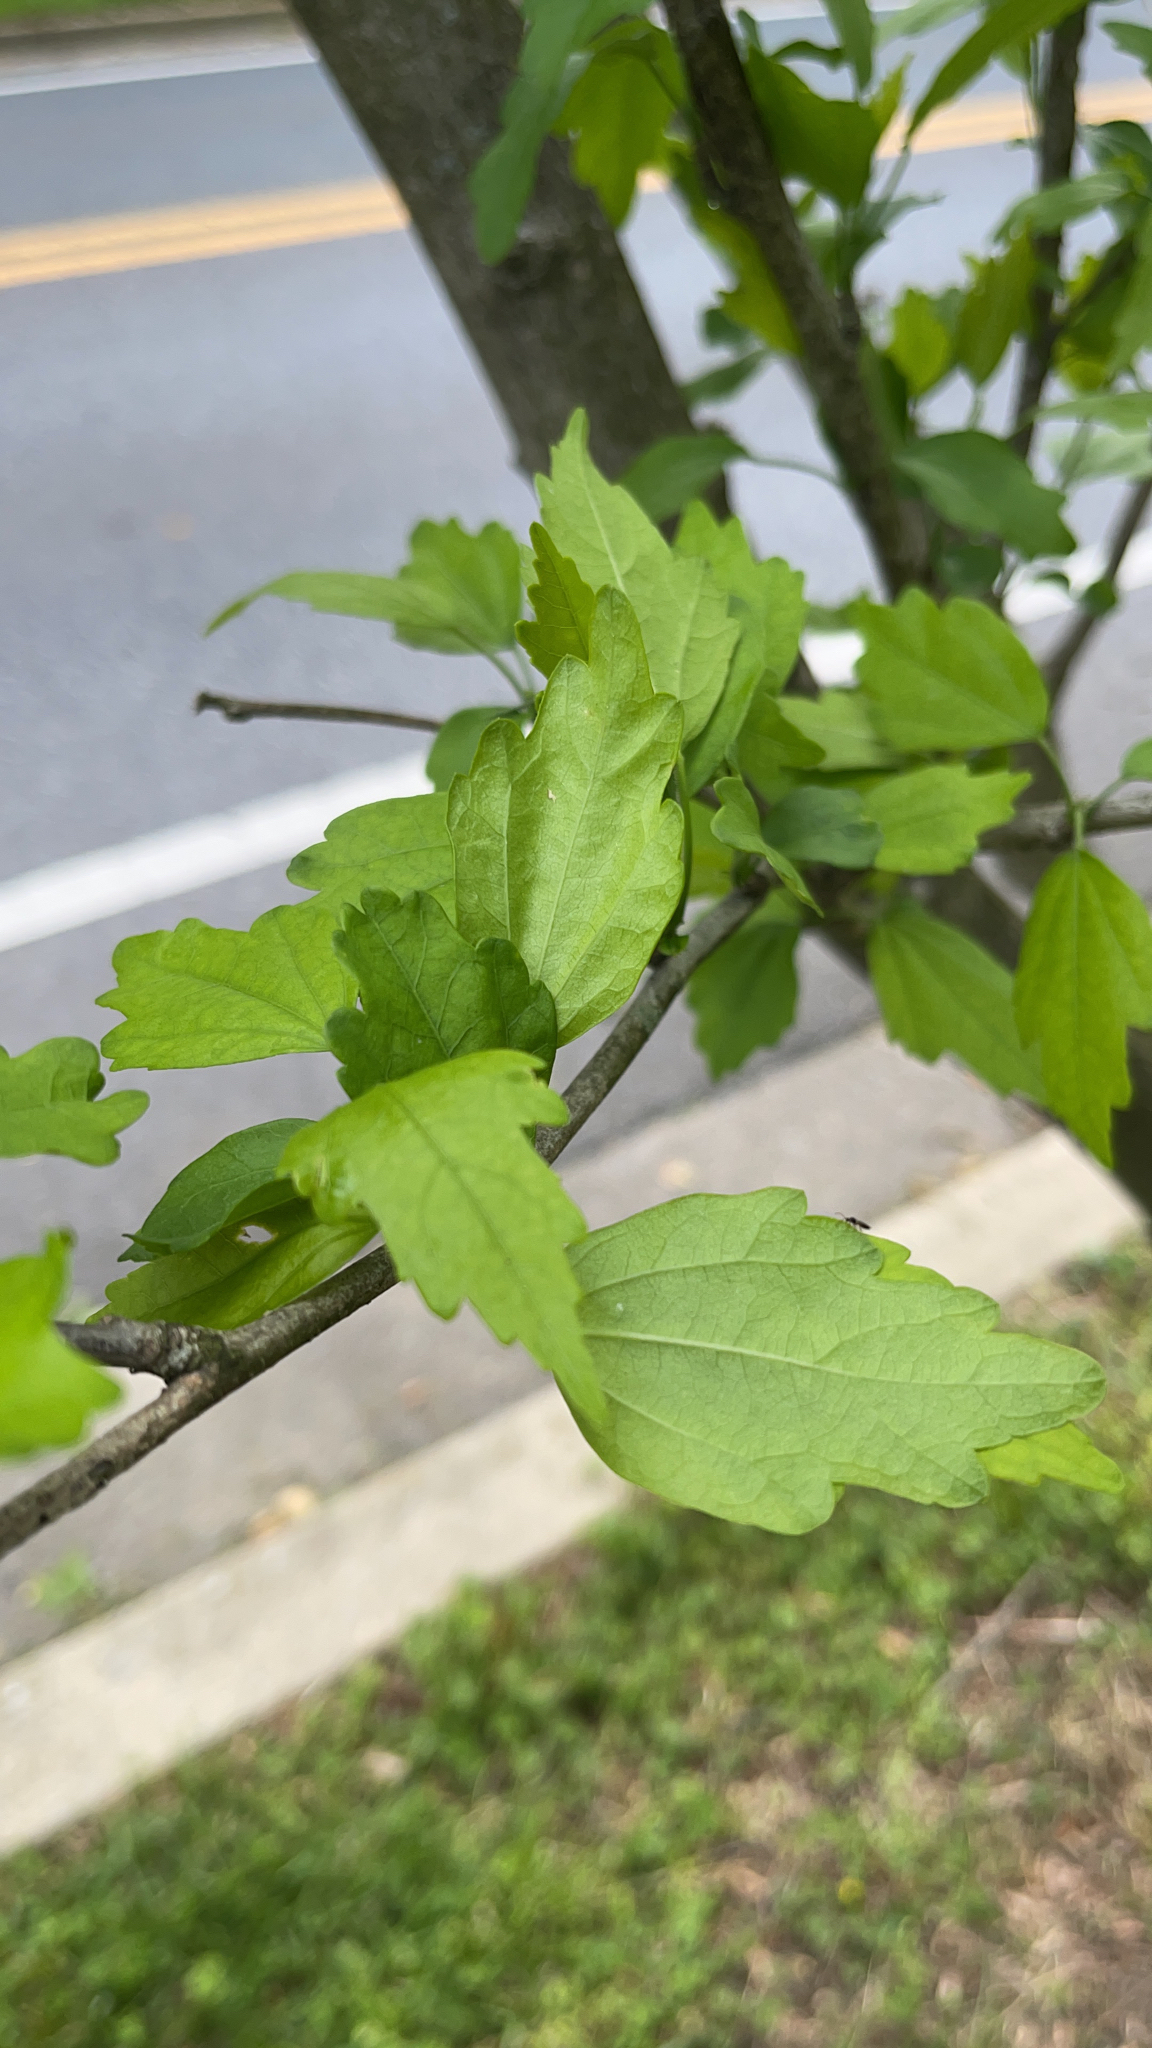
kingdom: Plantae
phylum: Tracheophyta
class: Magnoliopsida
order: Malvales
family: Malvaceae
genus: Hibiscus
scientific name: Hibiscus syriacus
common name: Syrian ketmia
